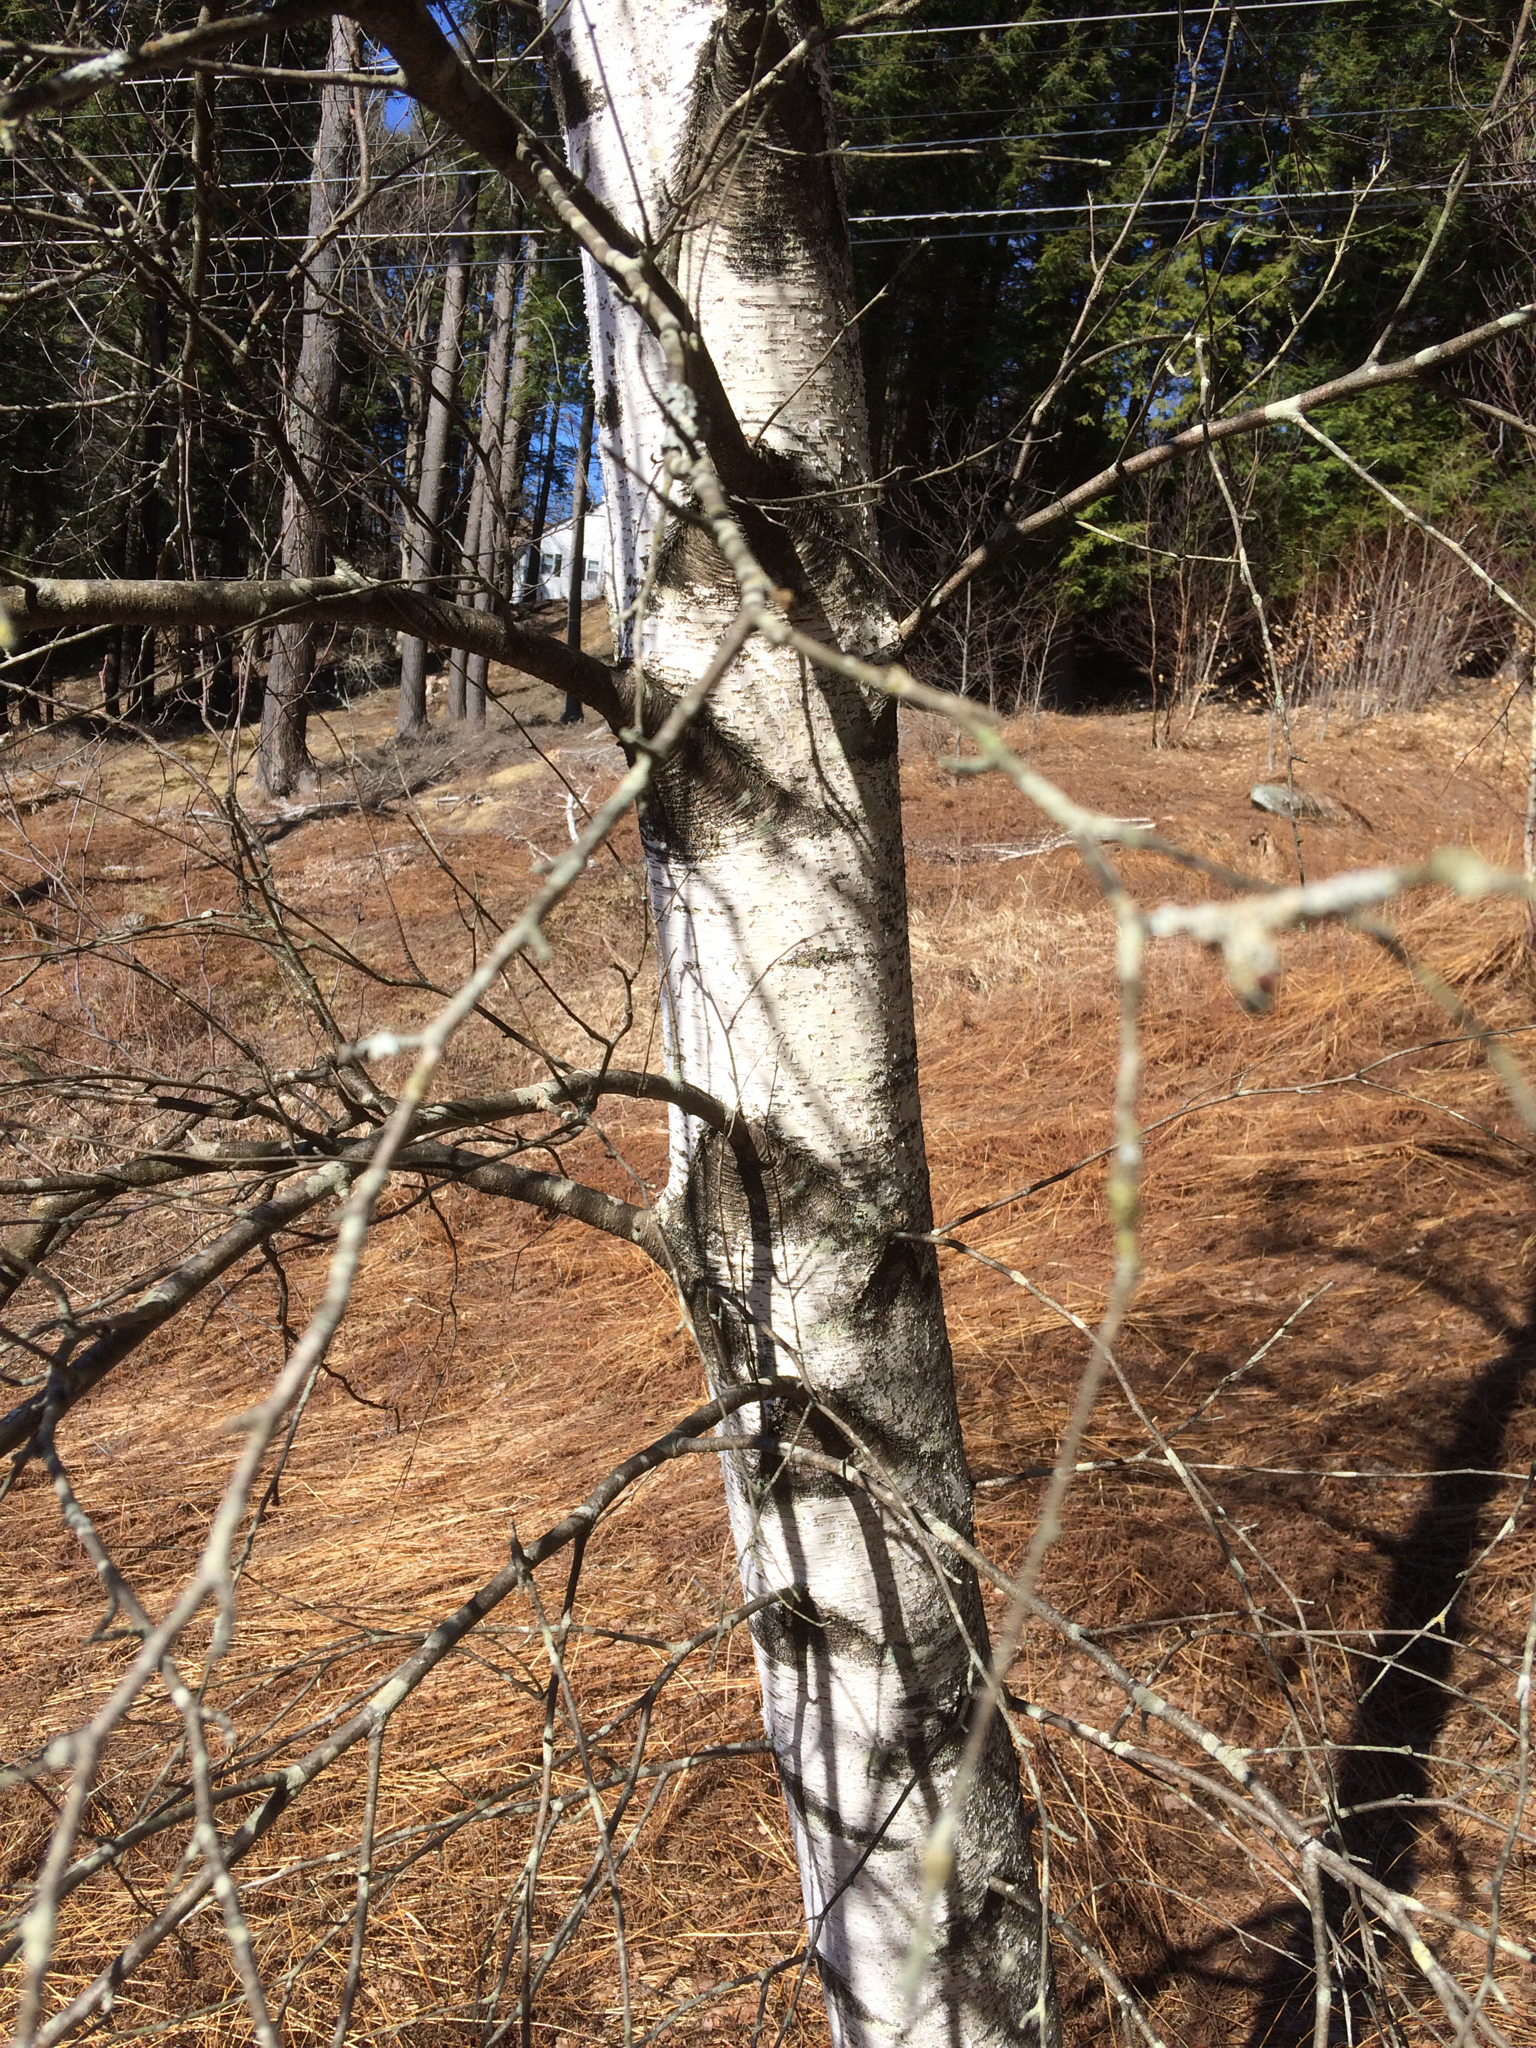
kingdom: Plantae
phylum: Tracheophyta
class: Magnoliopsida
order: Fagales
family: Betulaceae
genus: Betula
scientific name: Betula populifolia
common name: Fire birch
